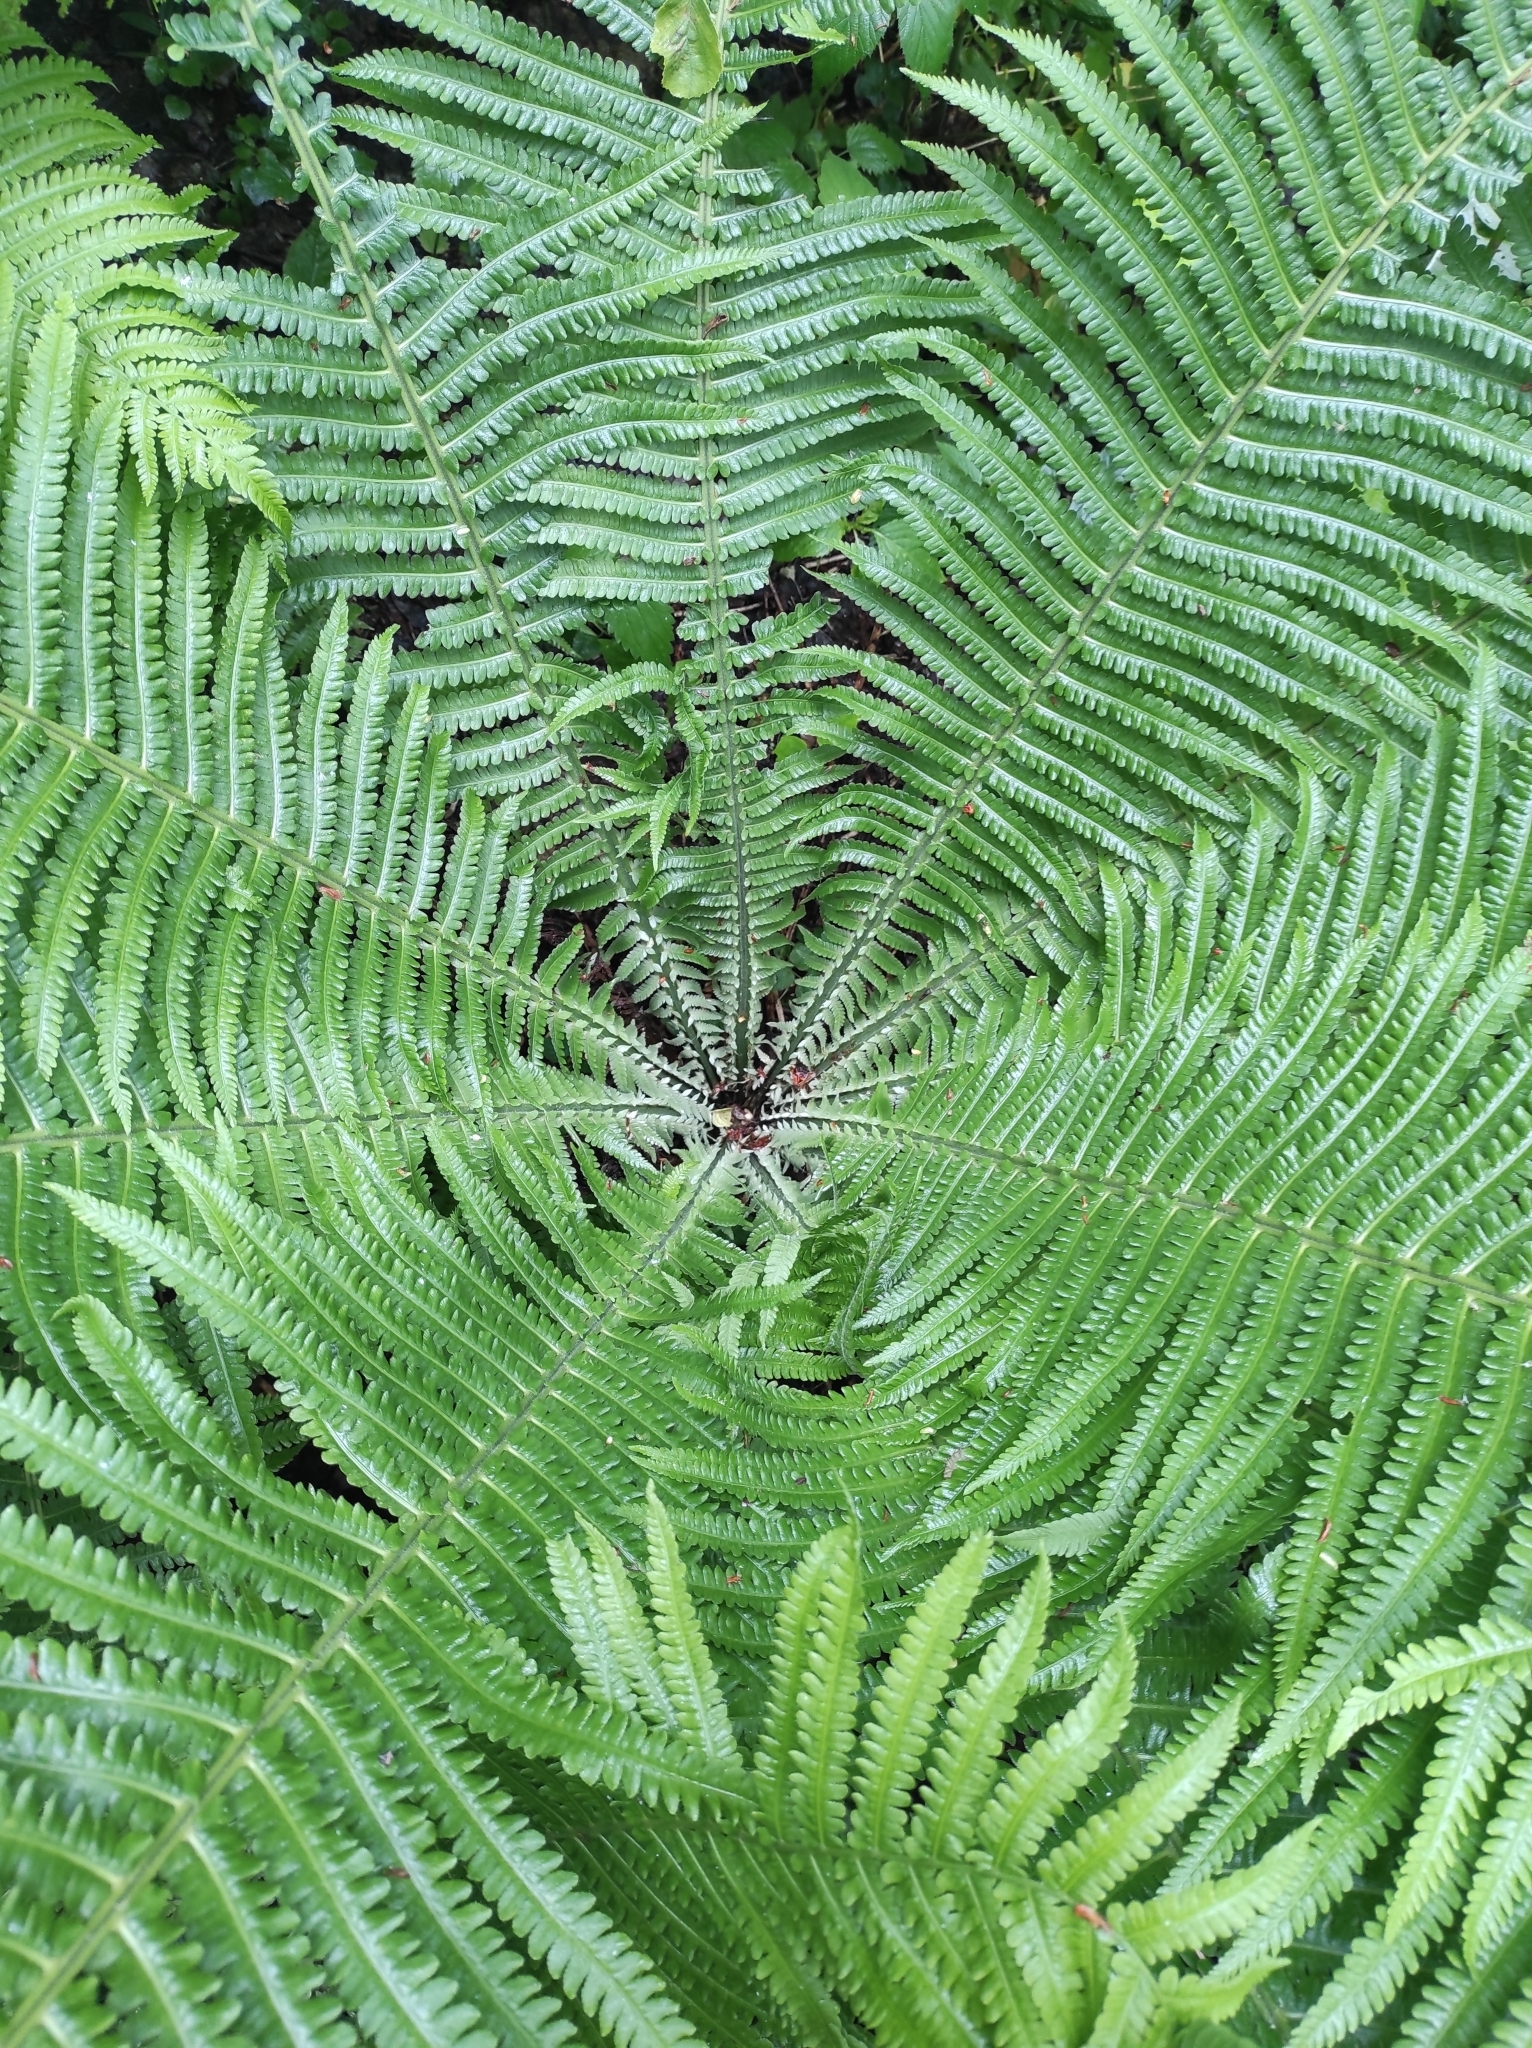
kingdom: Plantae
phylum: Tracheophyta
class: Polypodiopsida
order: Polypodiales
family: Onocleaceae
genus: Matteuccia
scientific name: Matteuccia struthiopteris
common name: Ostrich fern
